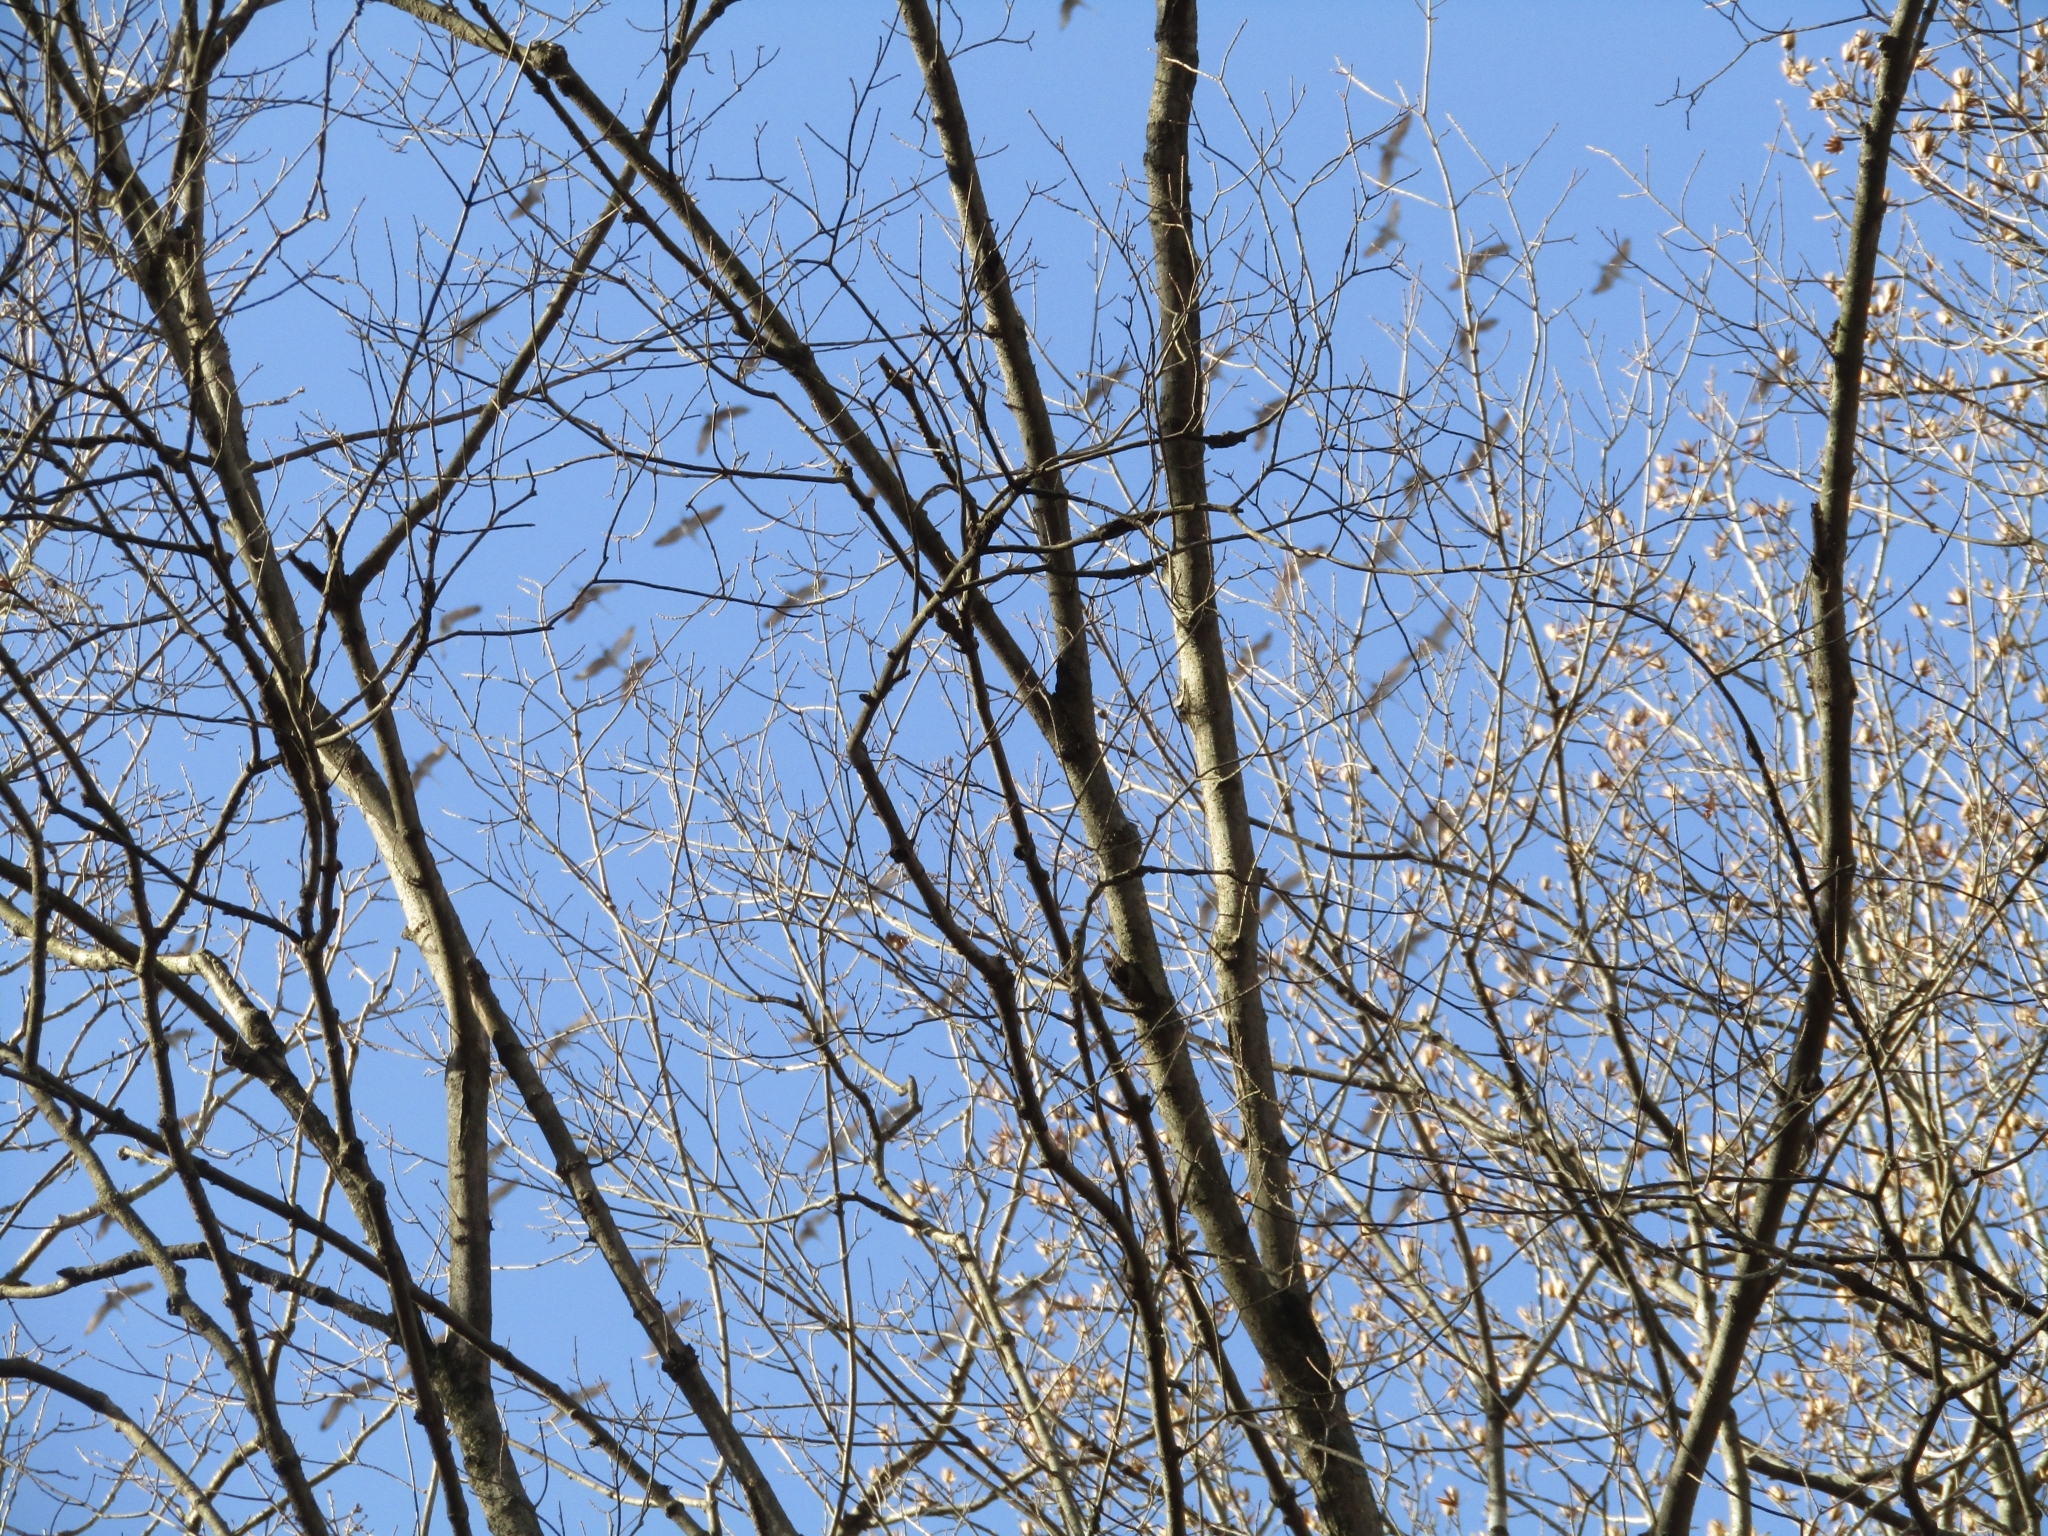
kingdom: Animalia
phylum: Chordata
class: Aves
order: Gruiformes
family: Gruidae
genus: Grus
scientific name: Grus canadensis
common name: Sandhill crane
